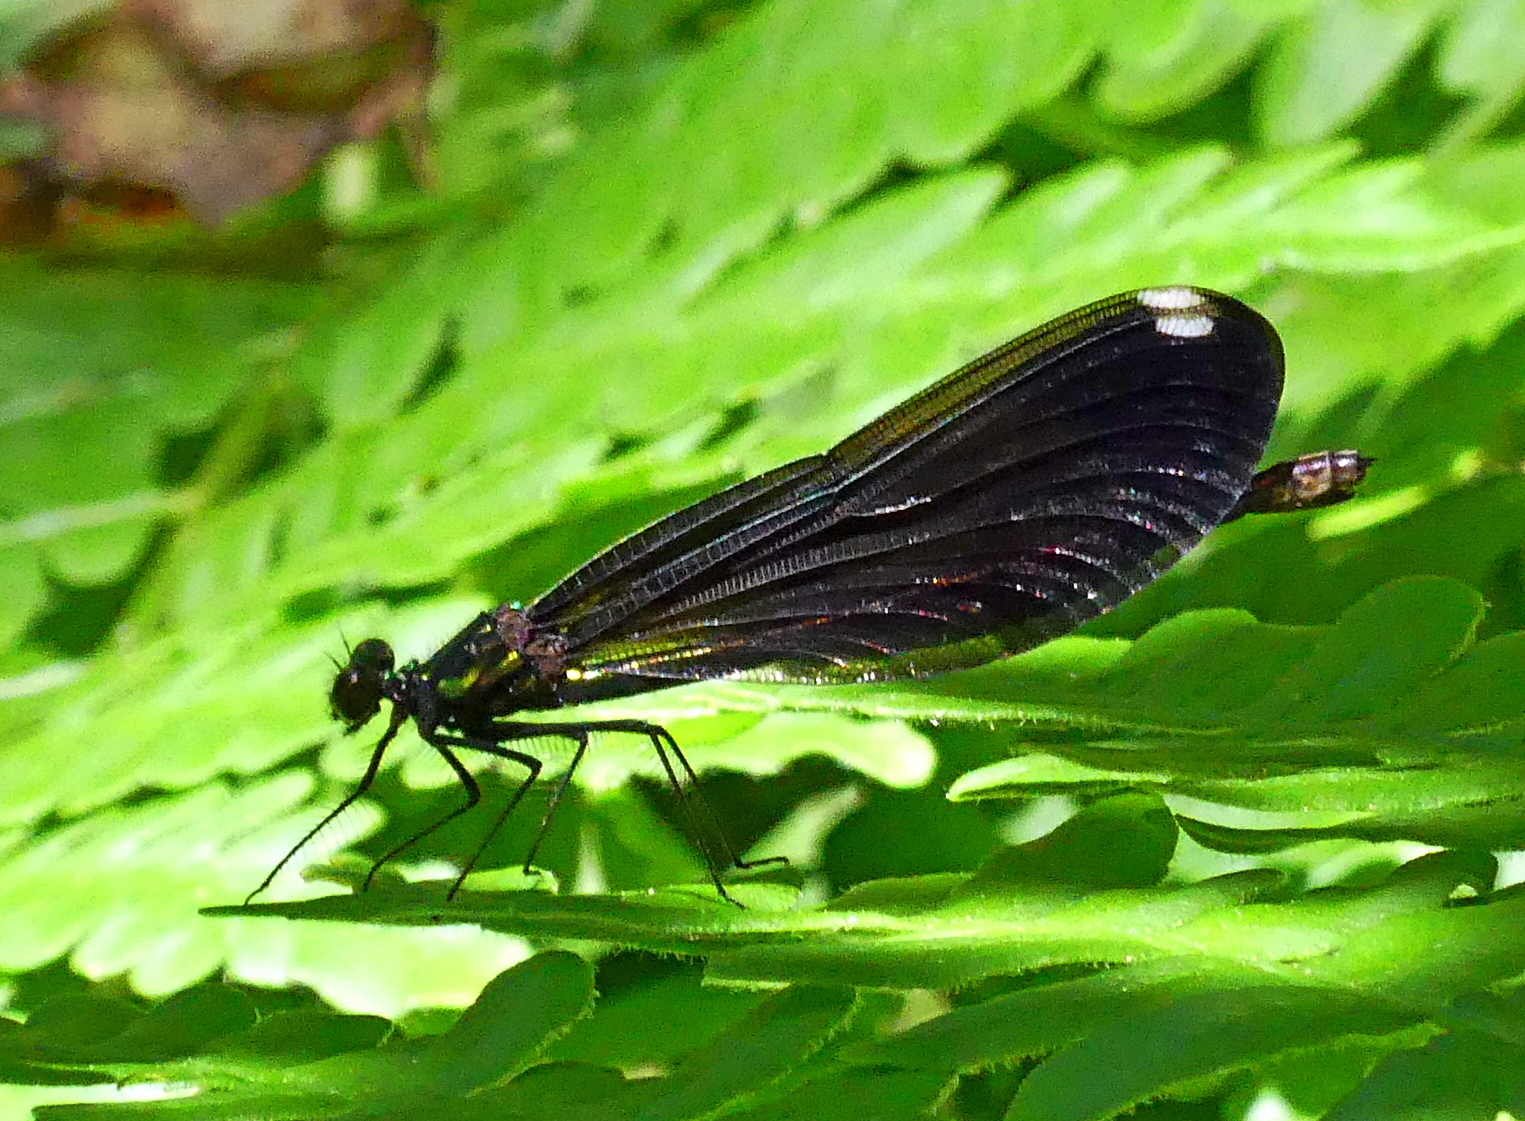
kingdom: Animalia
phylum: Arthropoda
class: Insecta
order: Odonata
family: Calopterygidae
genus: Calopteryx
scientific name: Calopteryx maculata
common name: Ebony jewelwing
